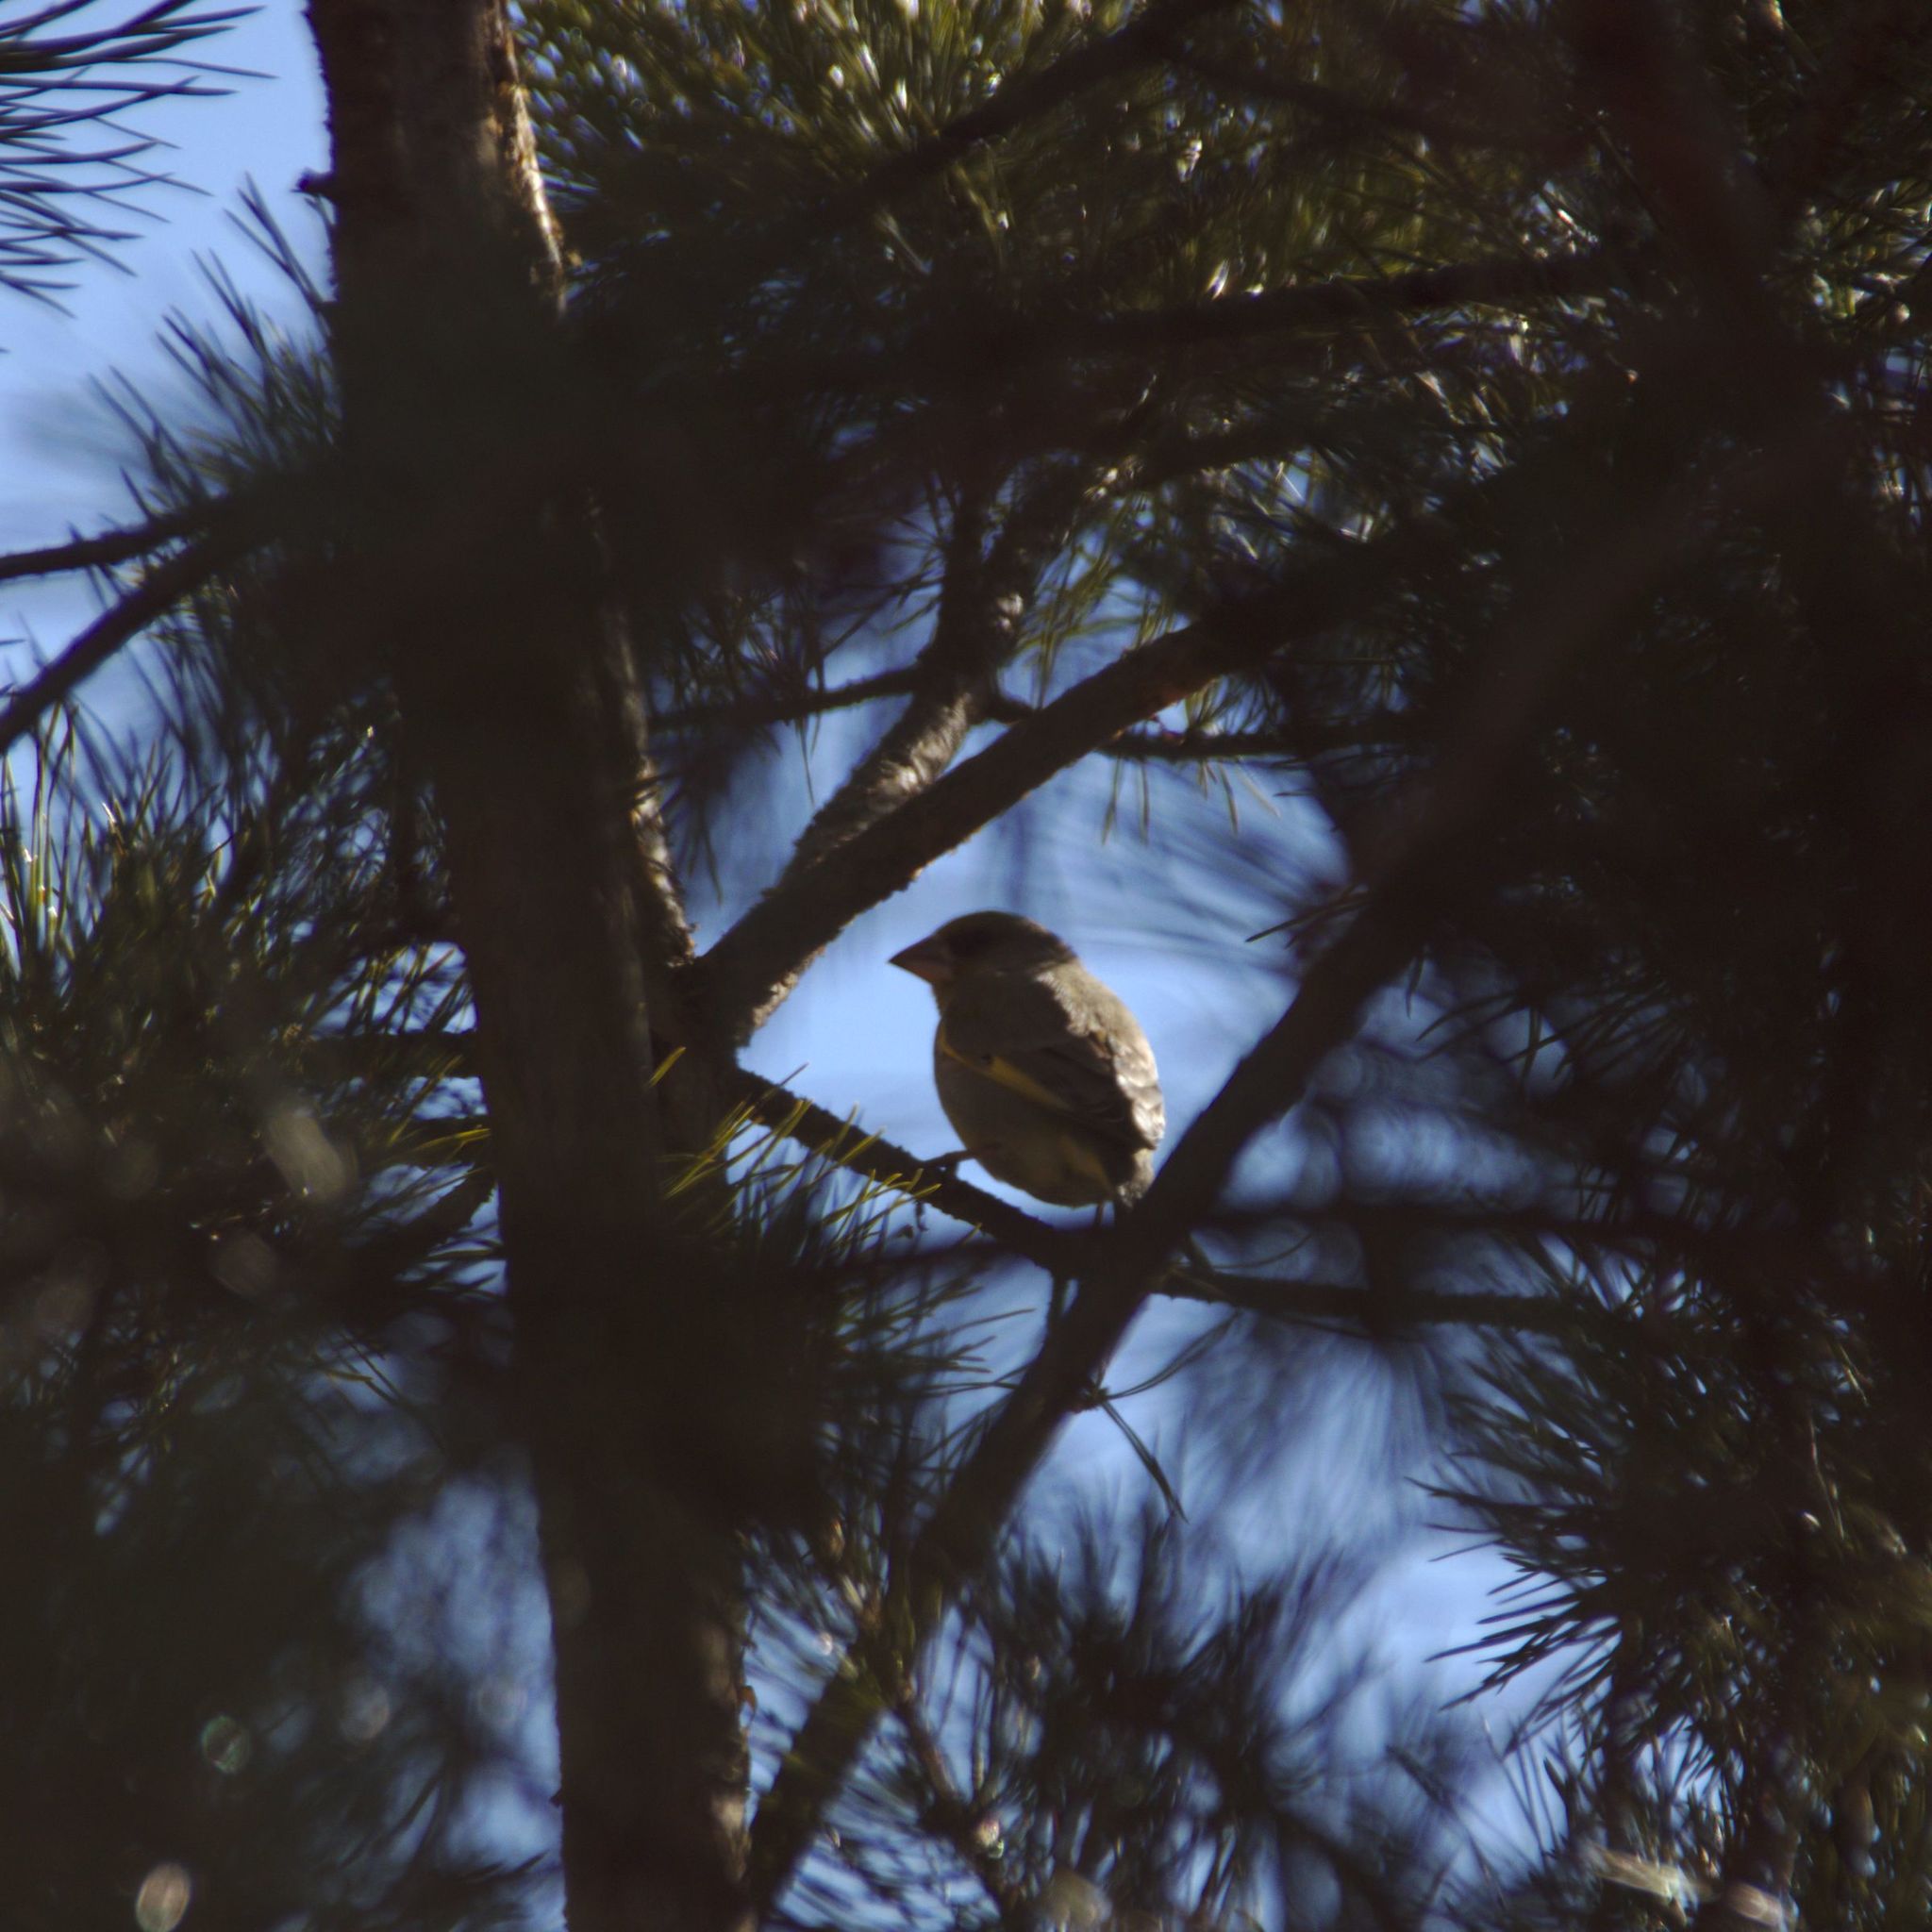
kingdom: Plantae
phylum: Tracheophyta
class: Liliopsida
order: Poales
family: Poaceae
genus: Chloris
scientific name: Chloris chloris
